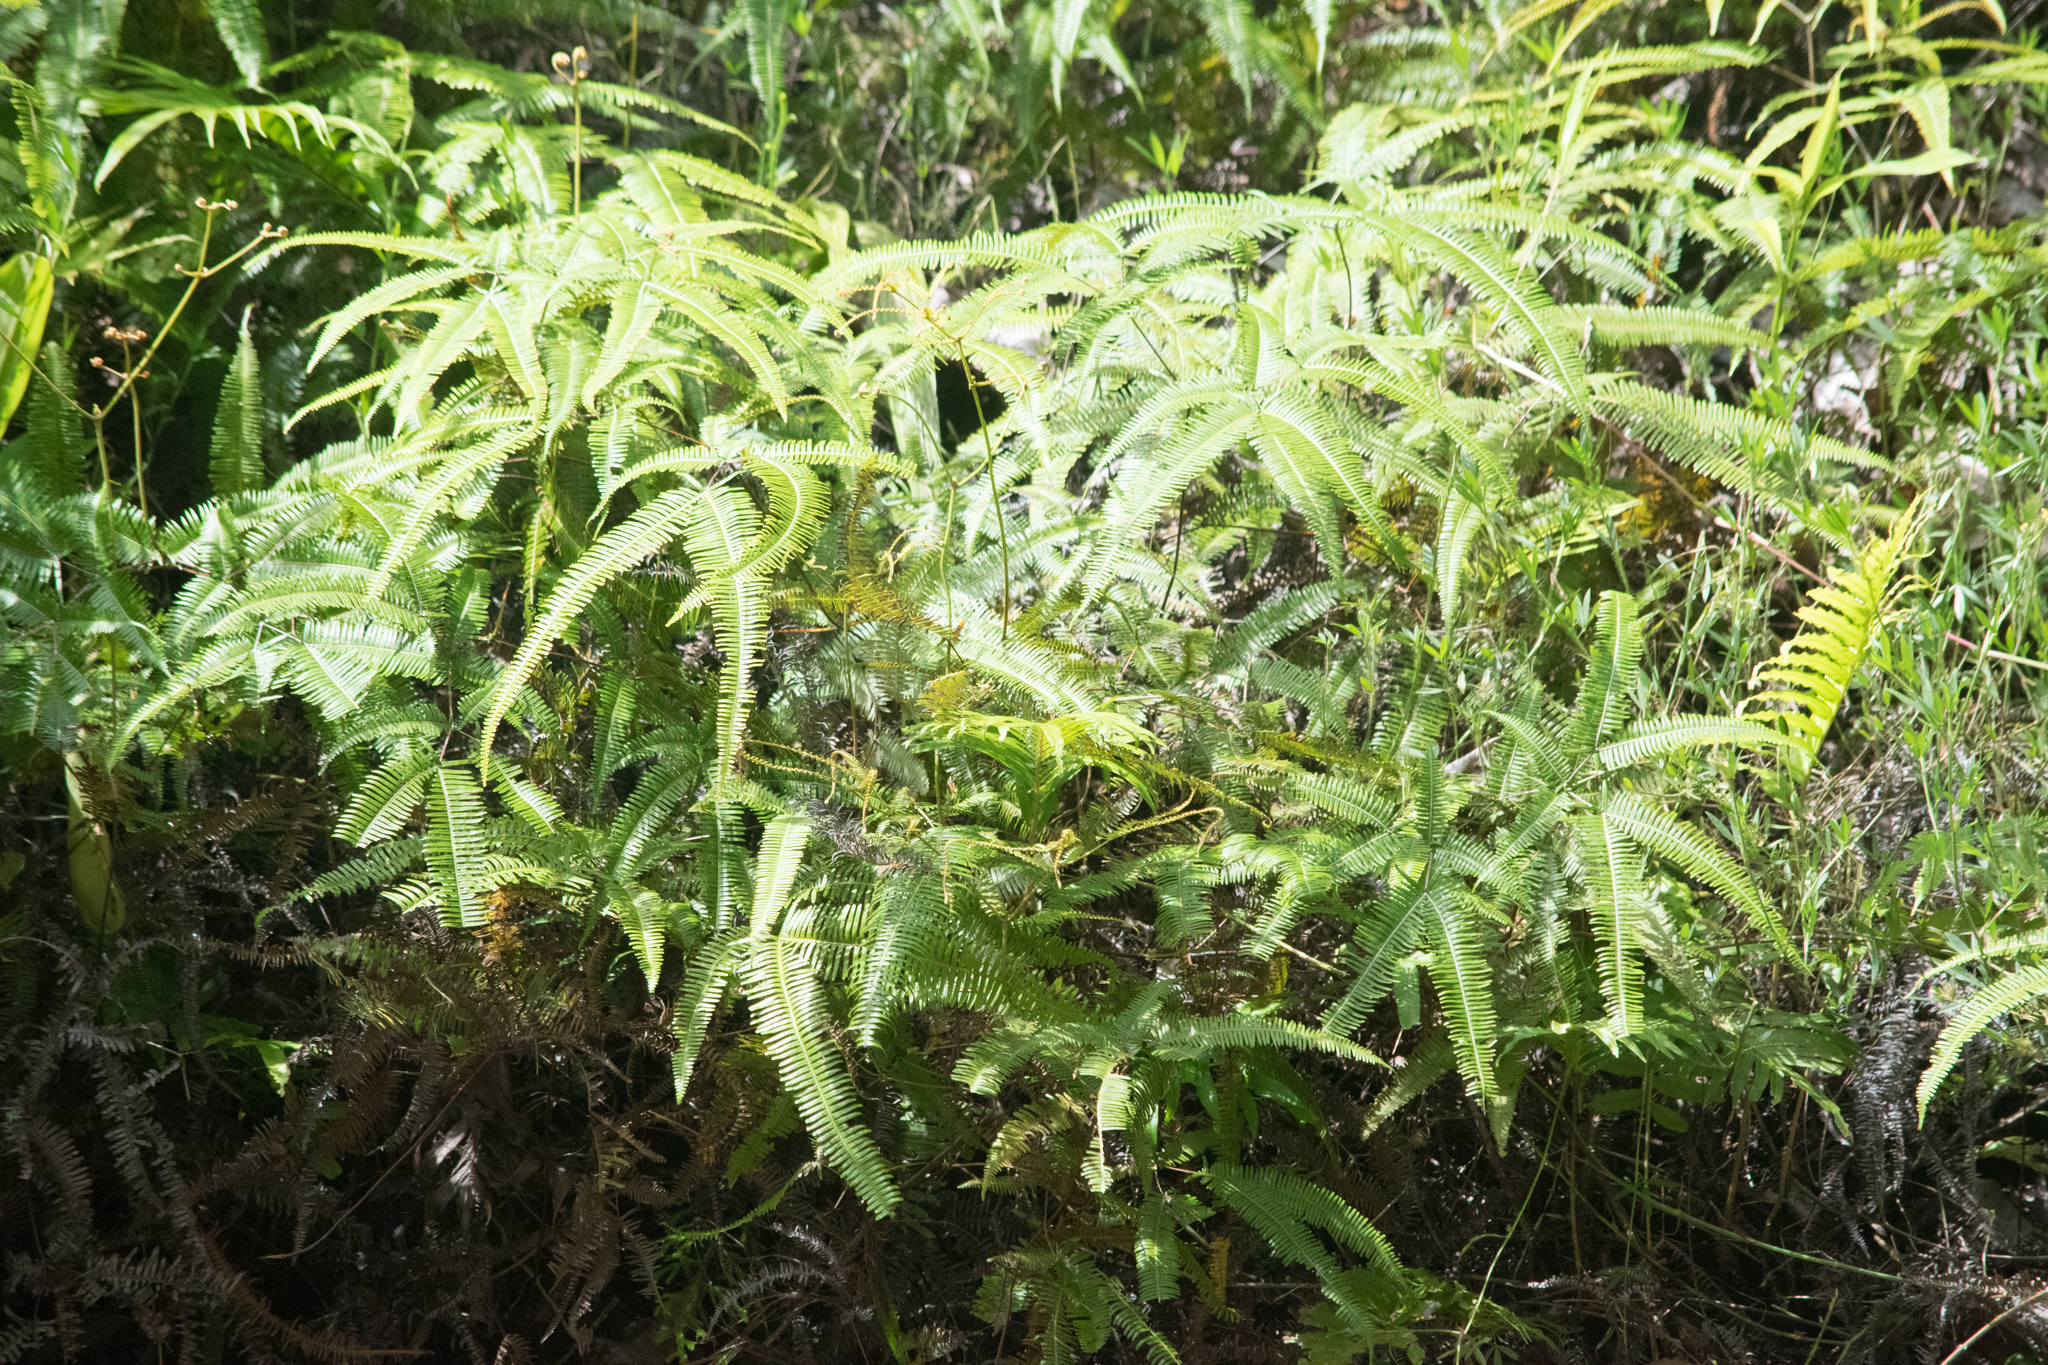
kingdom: Plantae
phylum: Tracheophyta
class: Polypodiopsida
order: Gleicheniales
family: Gleicheniaceae
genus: Dicranopteris
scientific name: Dicranopteris linearis
